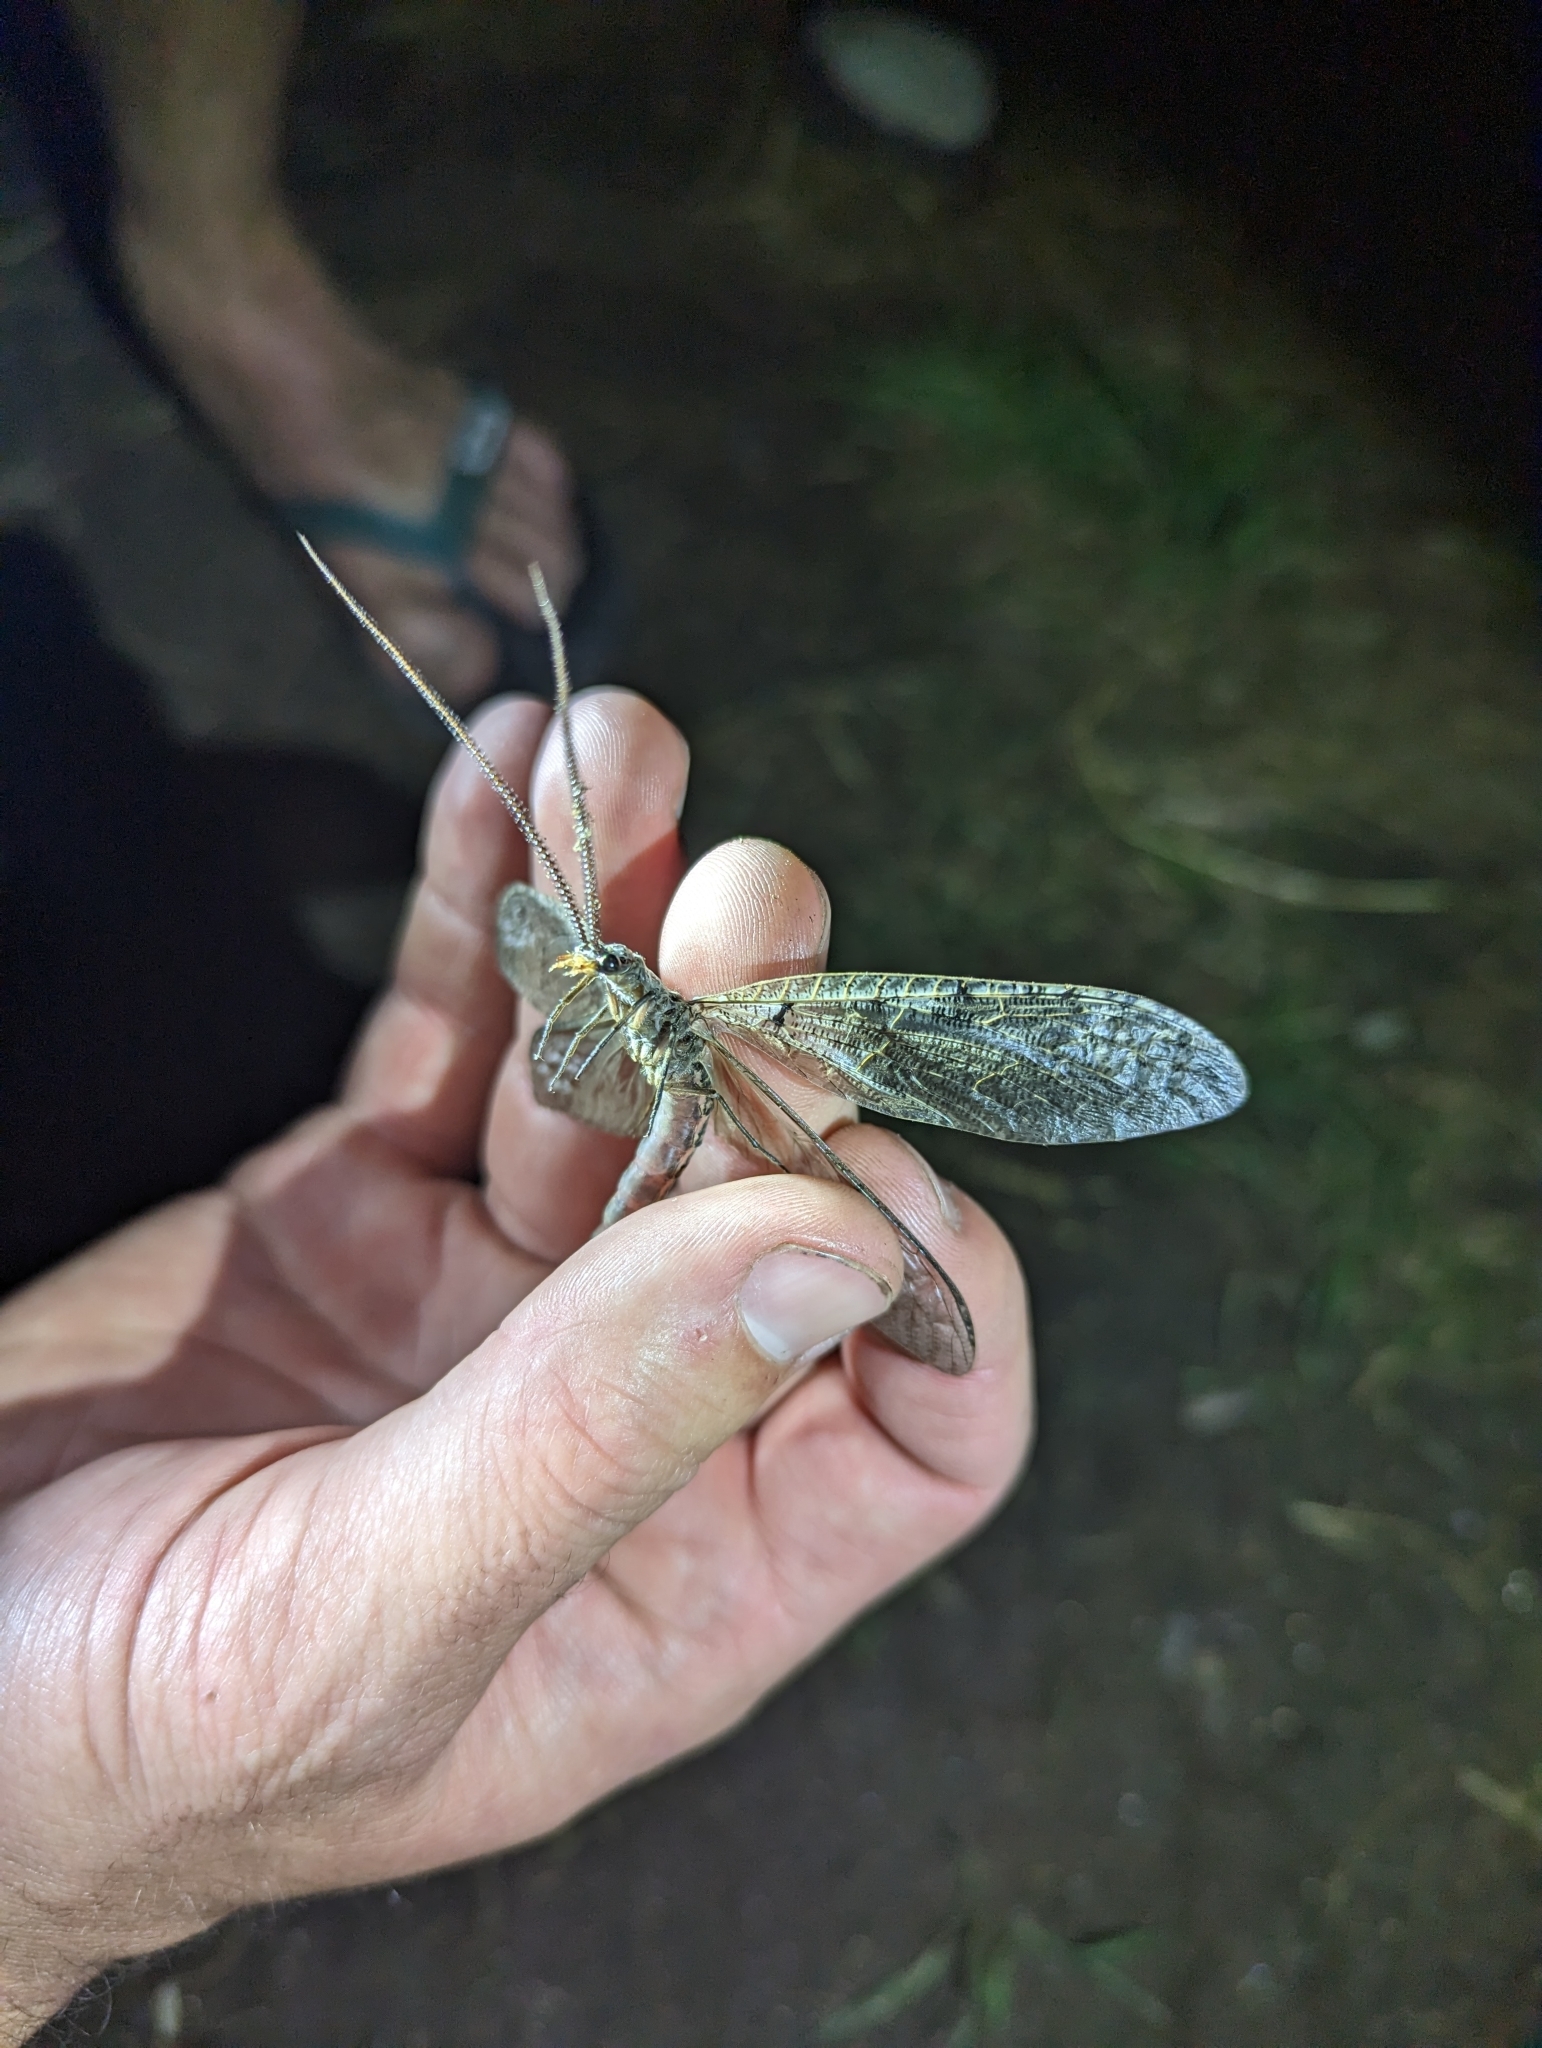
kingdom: Animalia
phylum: Arthropoda
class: Insecta
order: Megaloptera
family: Corydalidae
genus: Neohermes
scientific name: Neohermes californicus
